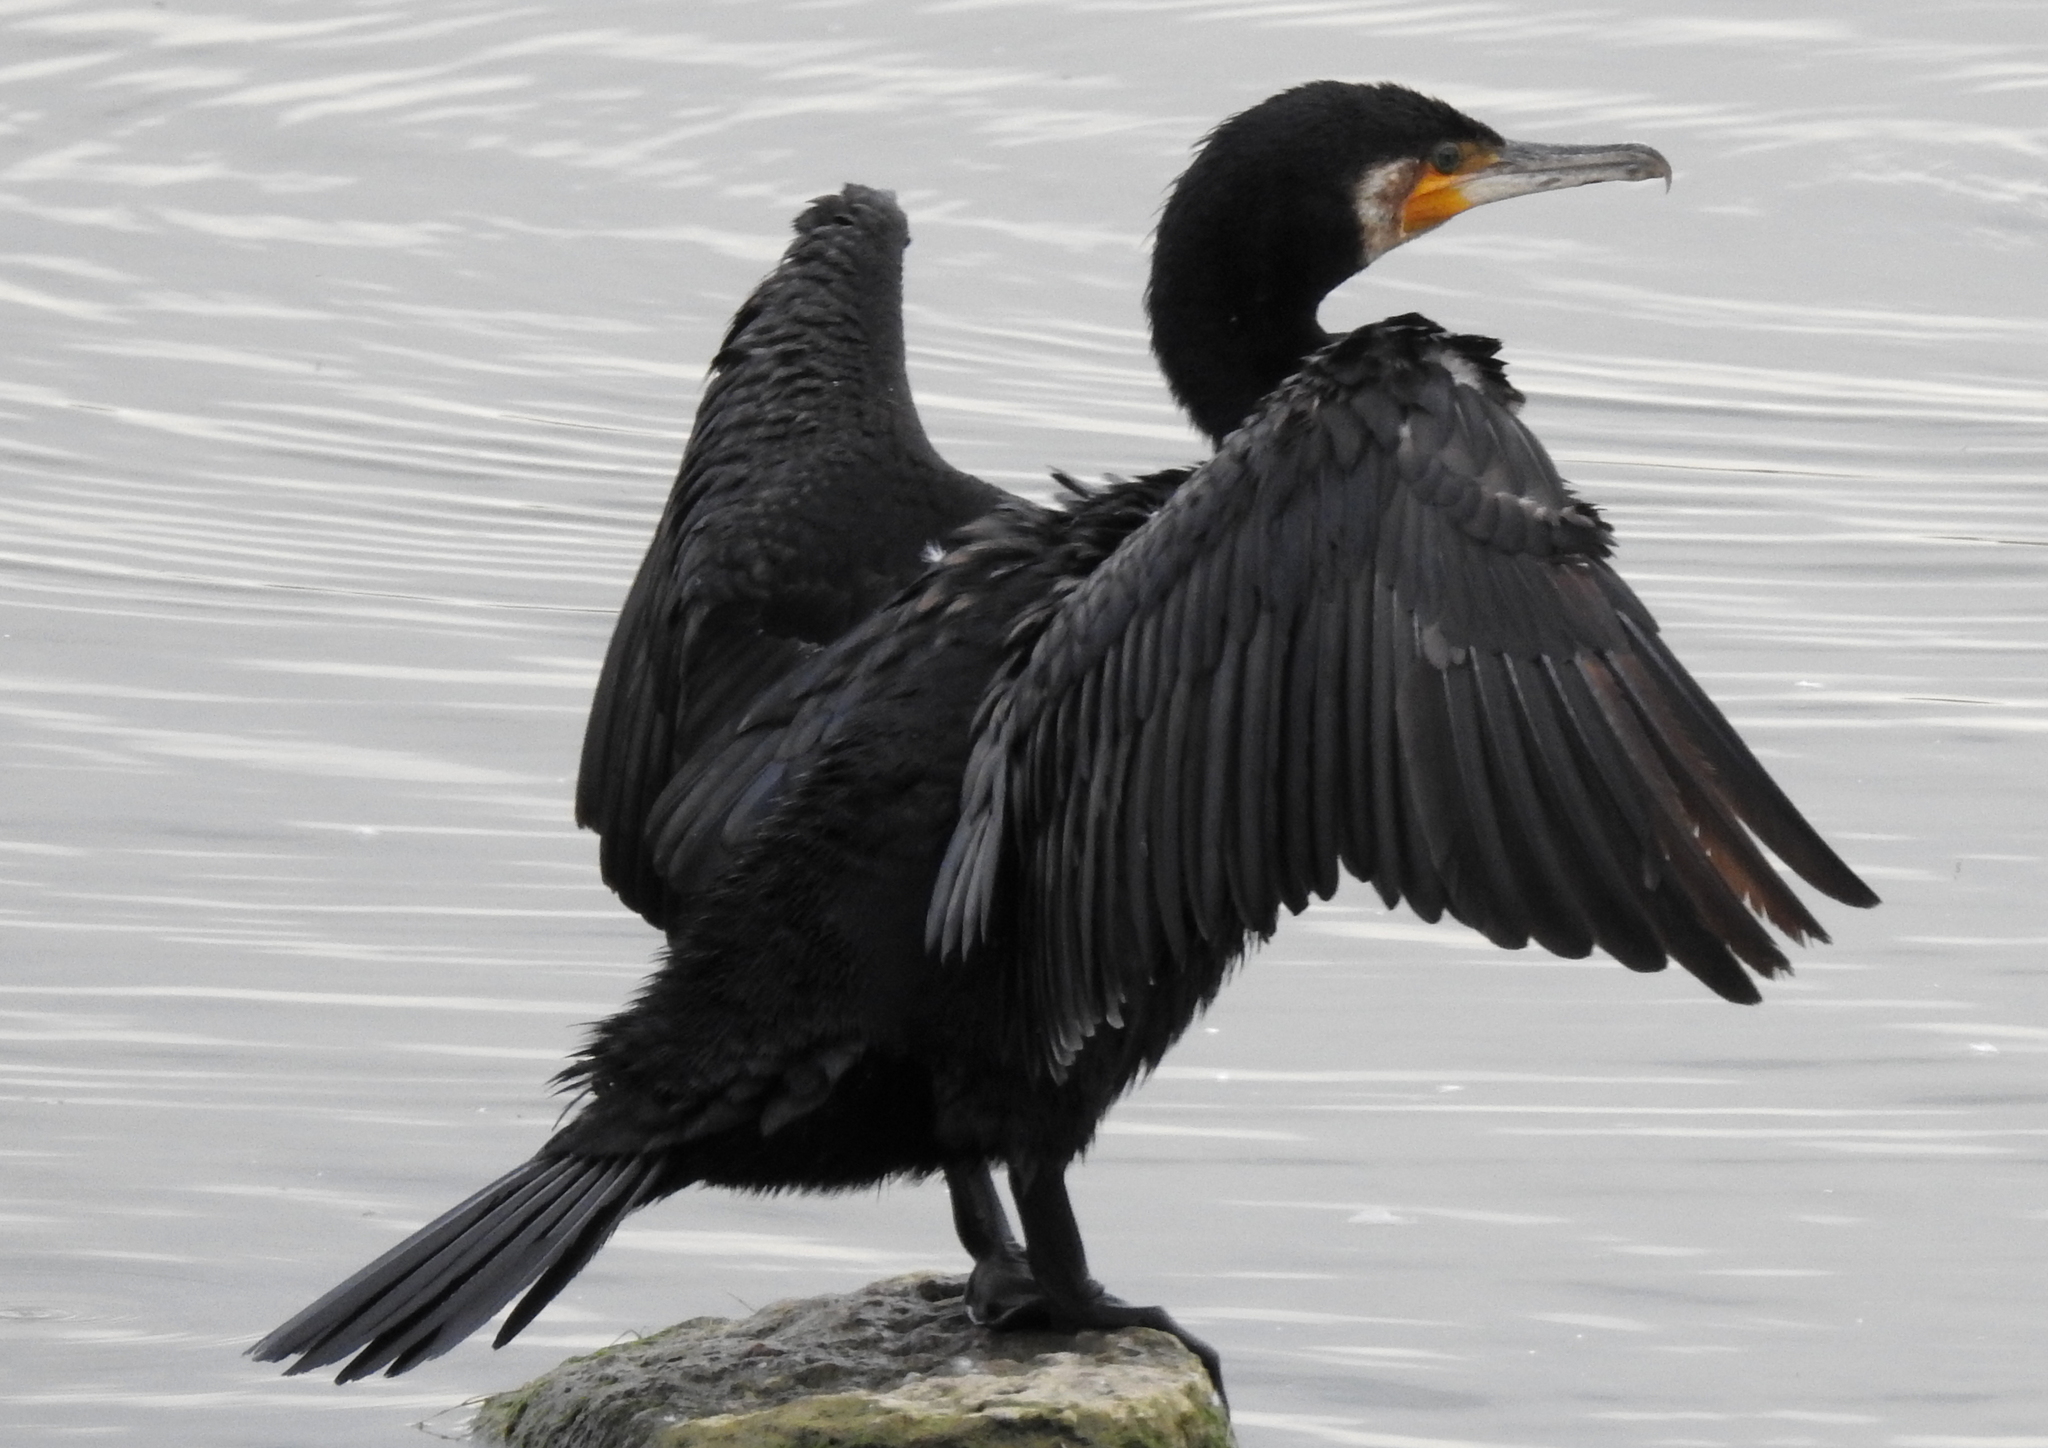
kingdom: Animalia
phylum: Chordata
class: Aves
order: Suliformes
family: Phalacrocoracidae
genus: Phalacrocorax
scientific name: Phalacrocorax carbo
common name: Great cormorant
